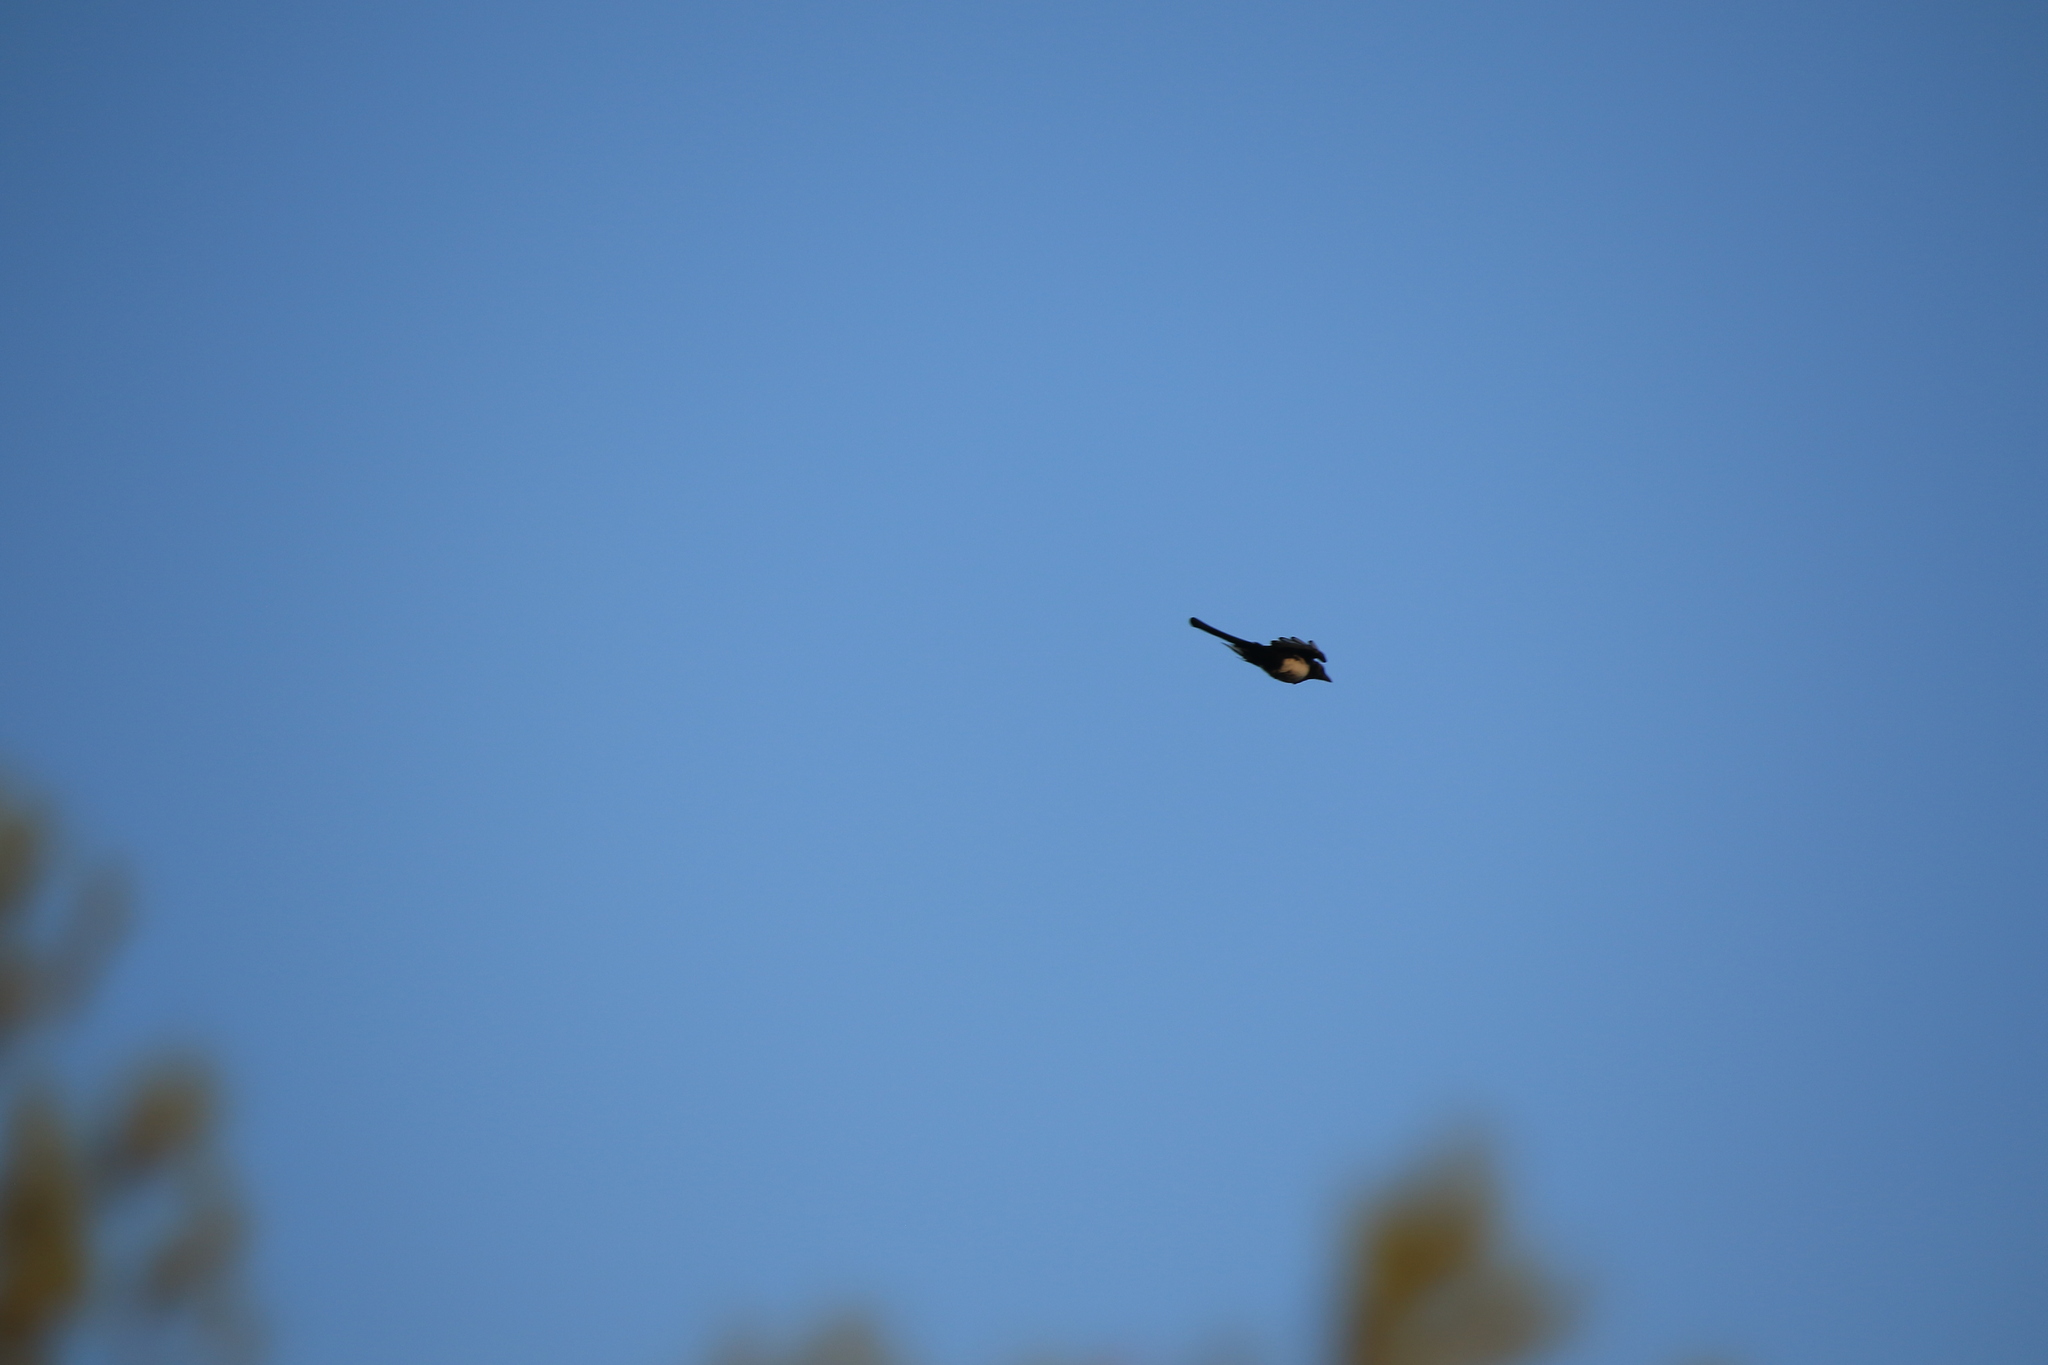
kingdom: Animalia
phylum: Chordata
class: Aves
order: Passeriformes
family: Corvidae
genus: Pica
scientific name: Pica pica
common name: Eurasian magpie
